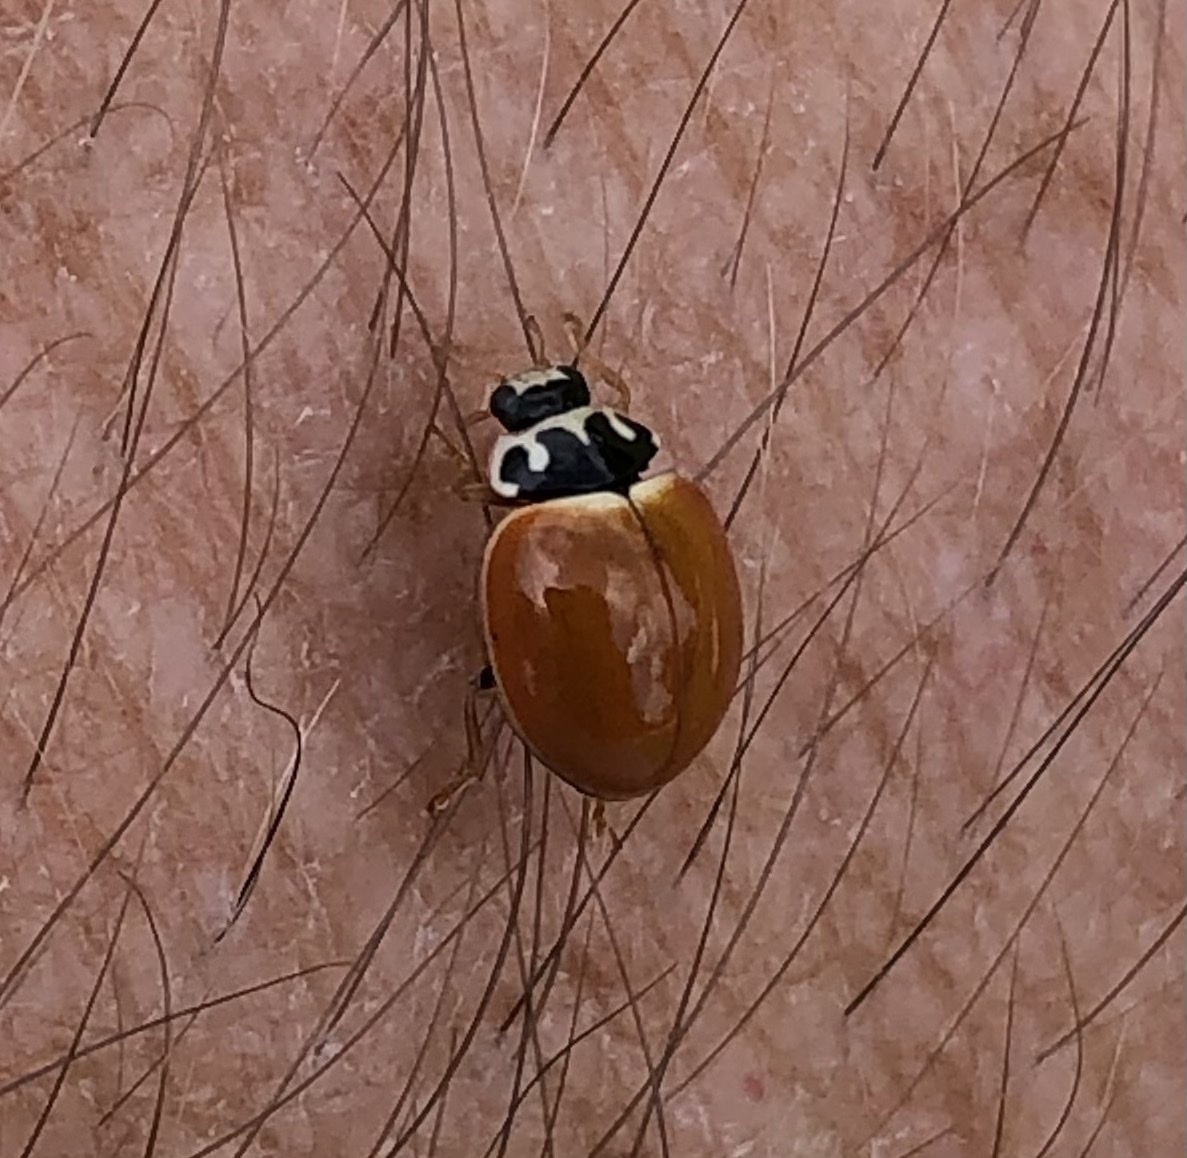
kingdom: Animalia
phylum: Arthropoda
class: Insecta
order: Coleoptera
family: Coccinellidae
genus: Cycloneda
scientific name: Cycloneda munda
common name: Polished lady beetle
